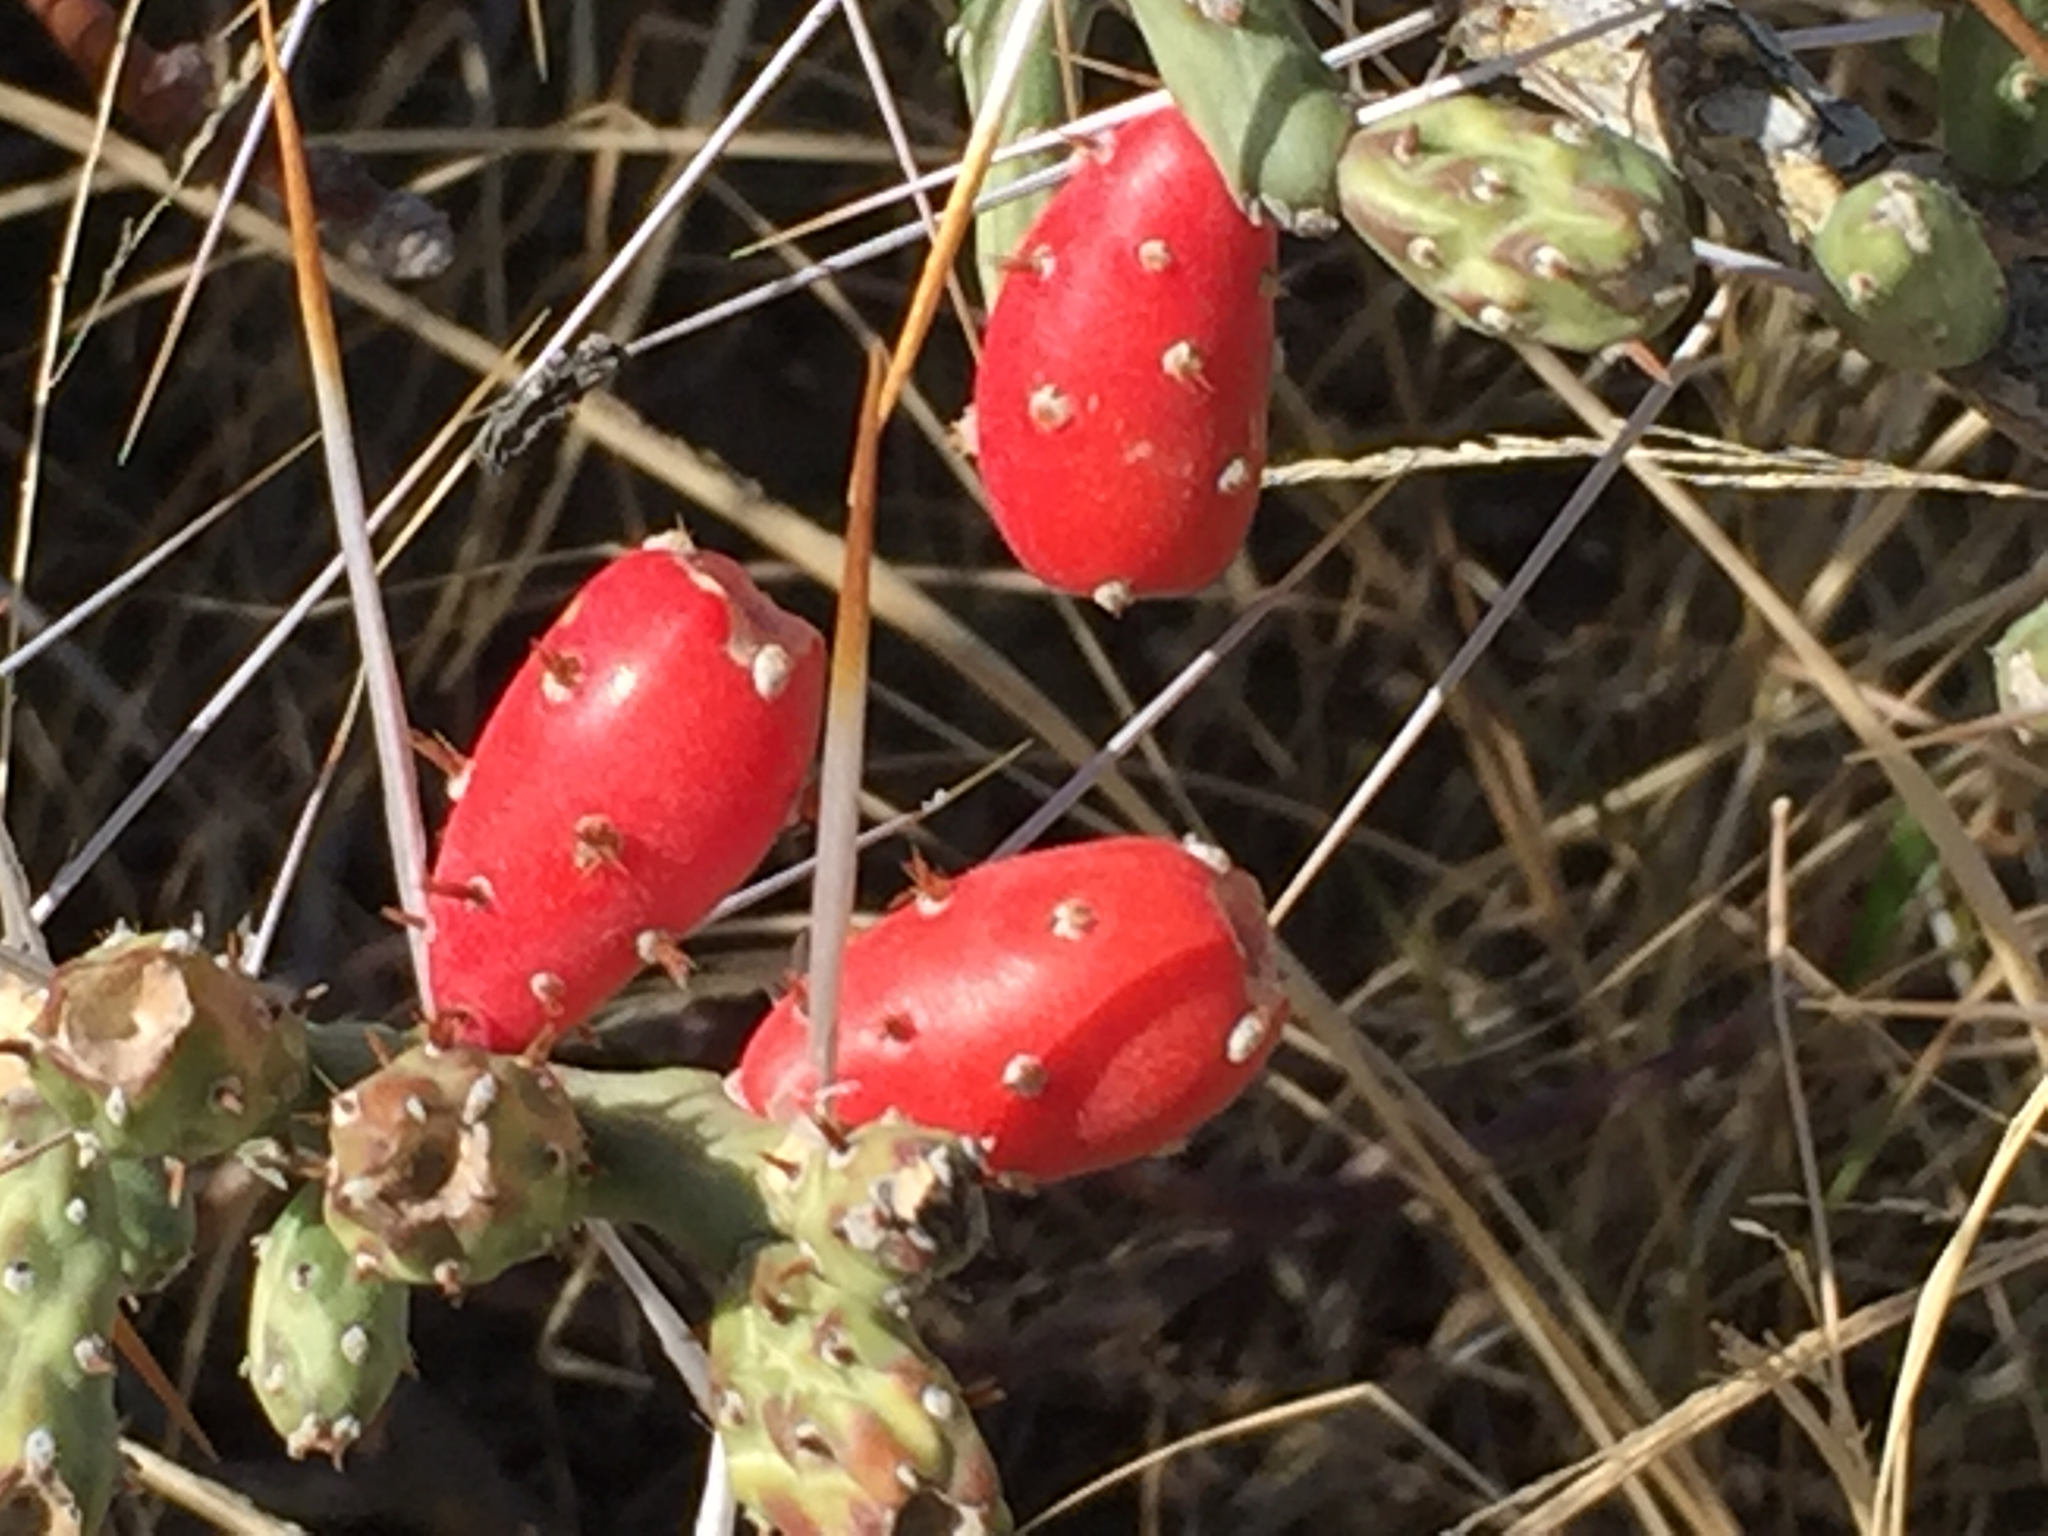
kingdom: Plantae
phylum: Tracheophyta
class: Magnoliopsida
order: Caryophyllales
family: Cactaceae
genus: Cylindropuntia
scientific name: Cylindropuntia leptocaulis
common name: Christmas cactus
